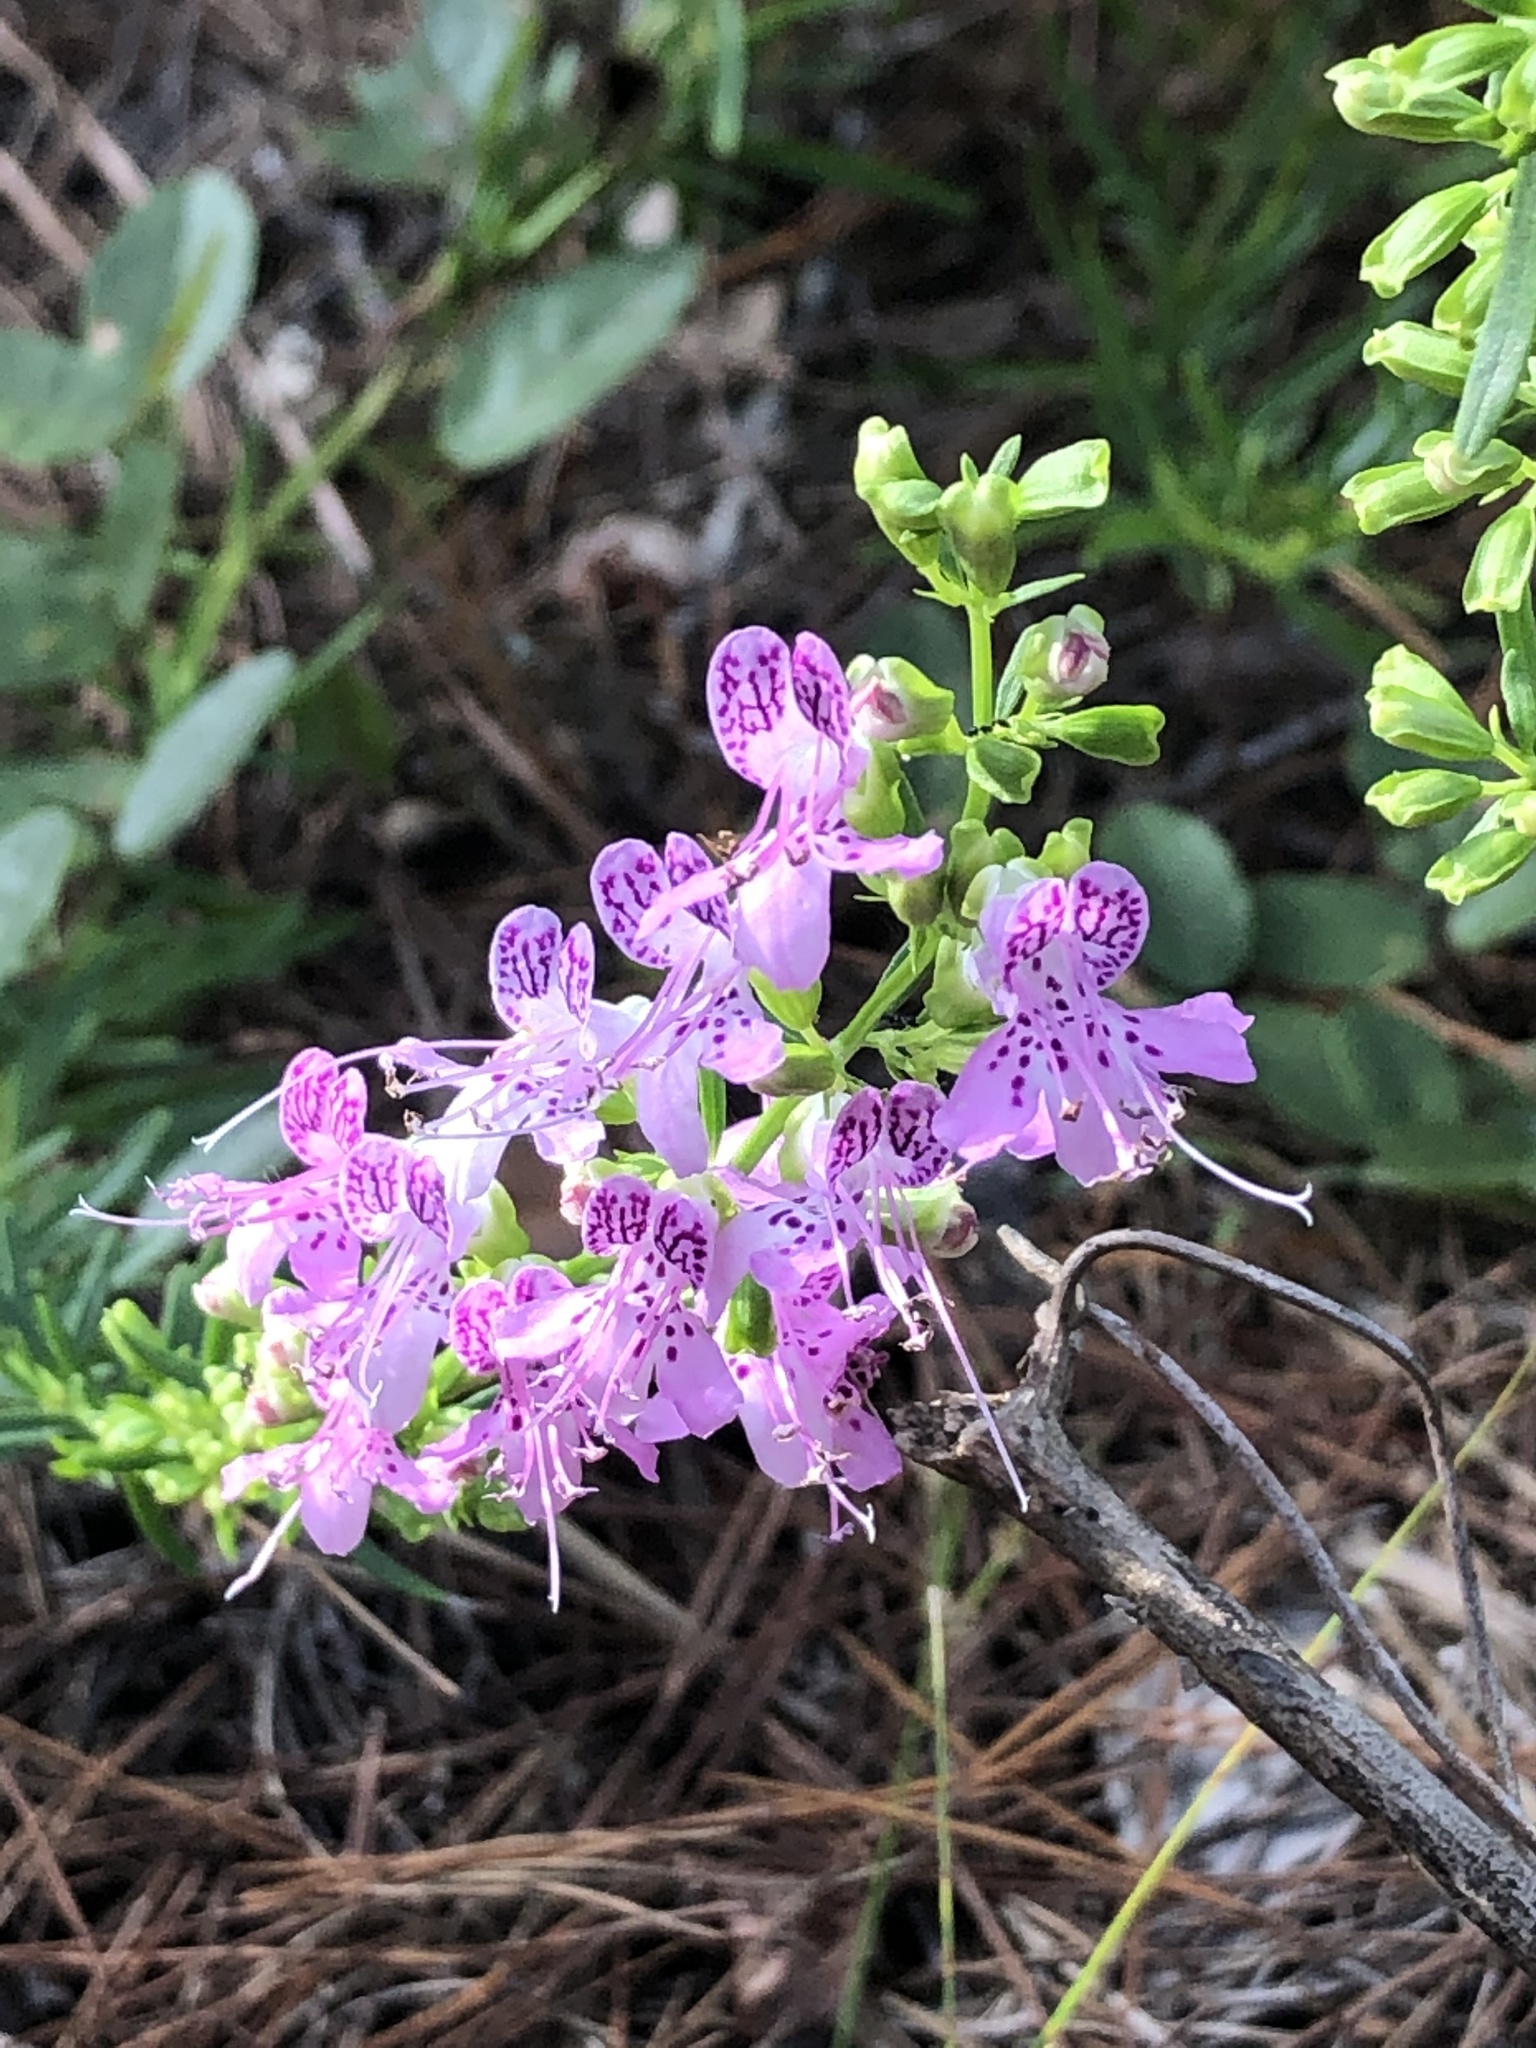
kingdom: Plantae
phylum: Tracheophyta
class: Magnoliopsida
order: Lamiales
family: Lamiaceae
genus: Dicerandra
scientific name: Dicerandra frutescens
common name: Scrub-mint
